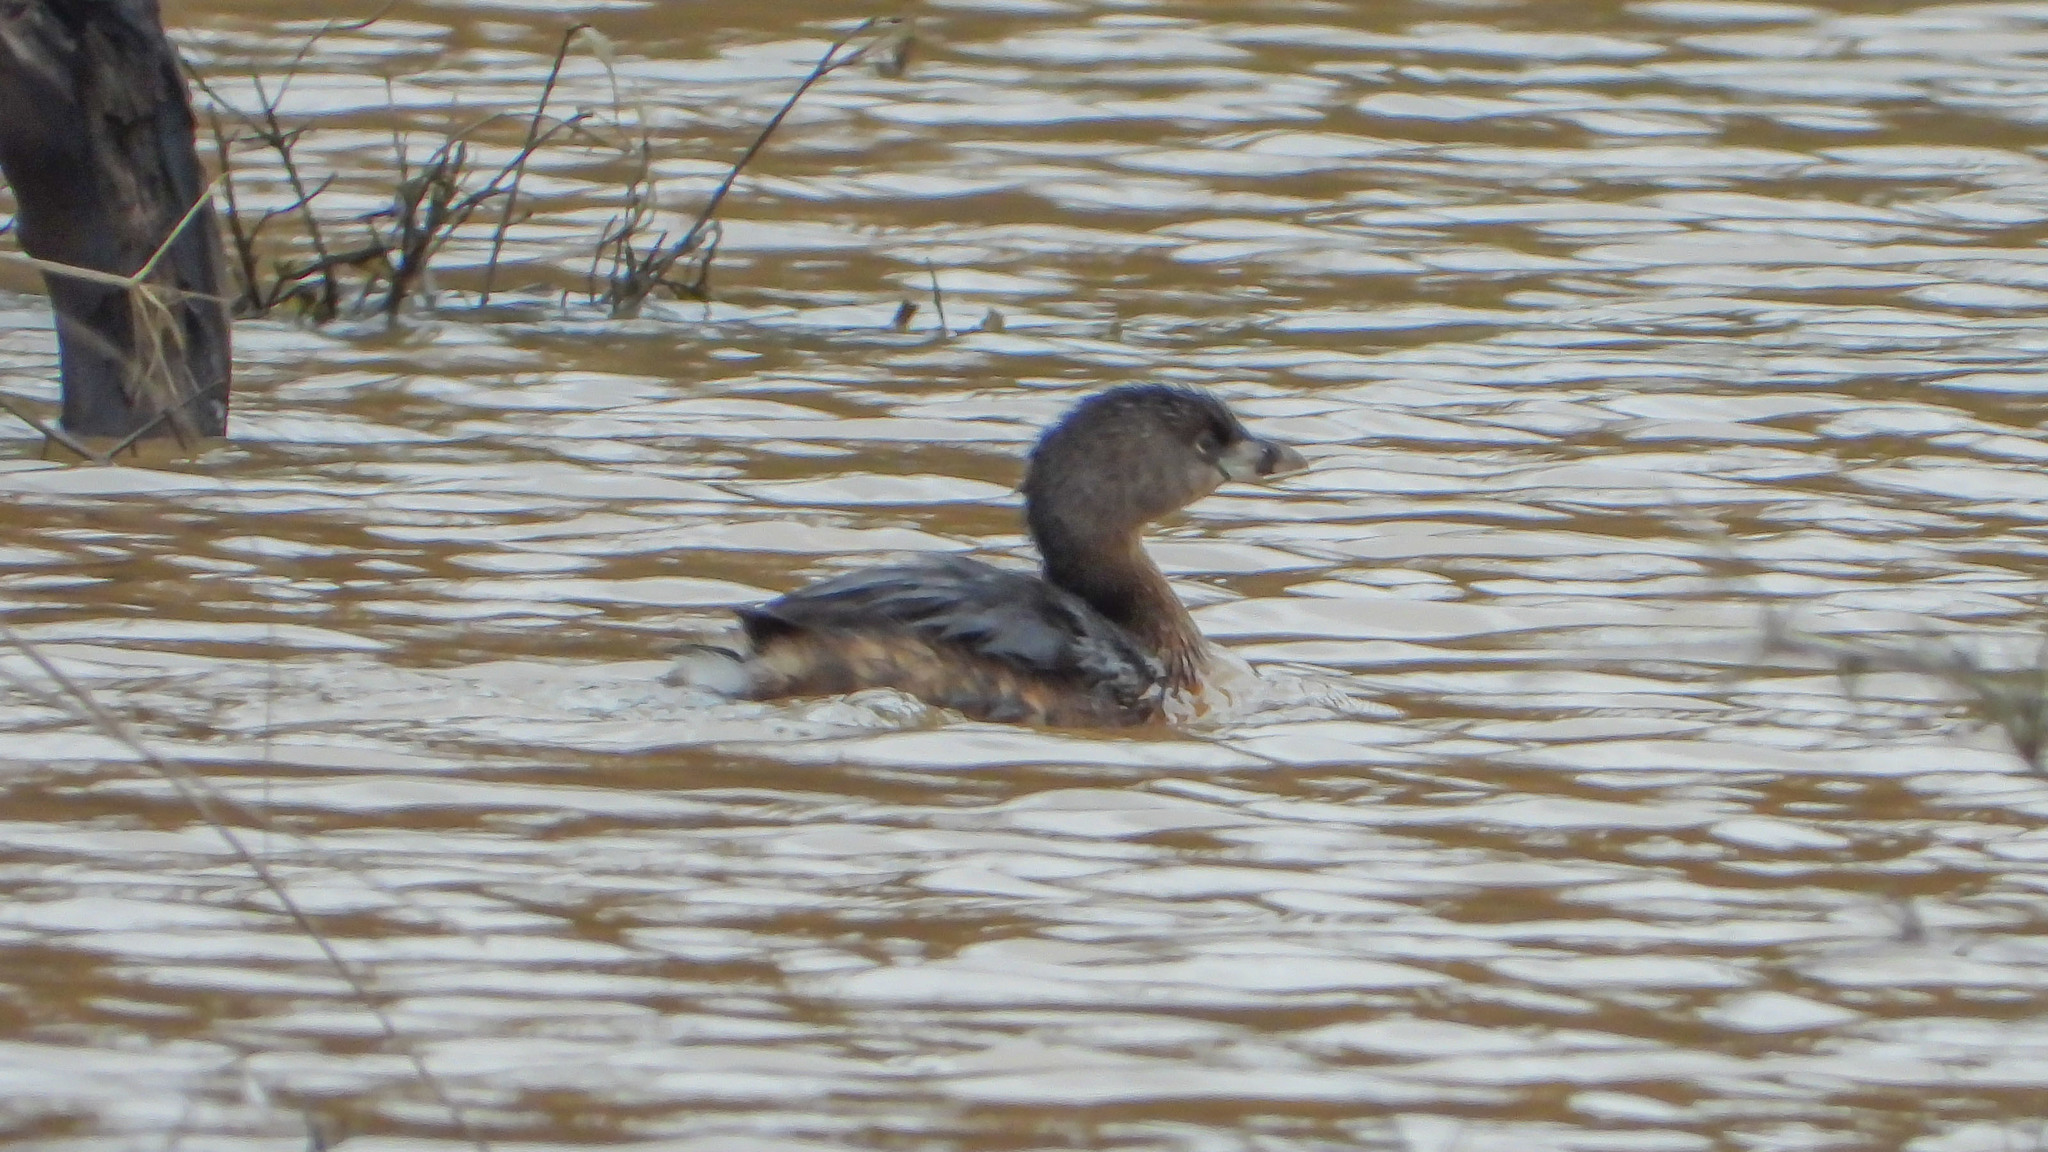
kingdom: Animalia
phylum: Chordata
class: Aves
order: Podicipediformes
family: Podicipedidae
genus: Podilymbus
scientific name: Podilymbus podiceps
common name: Pied-billed grebe
